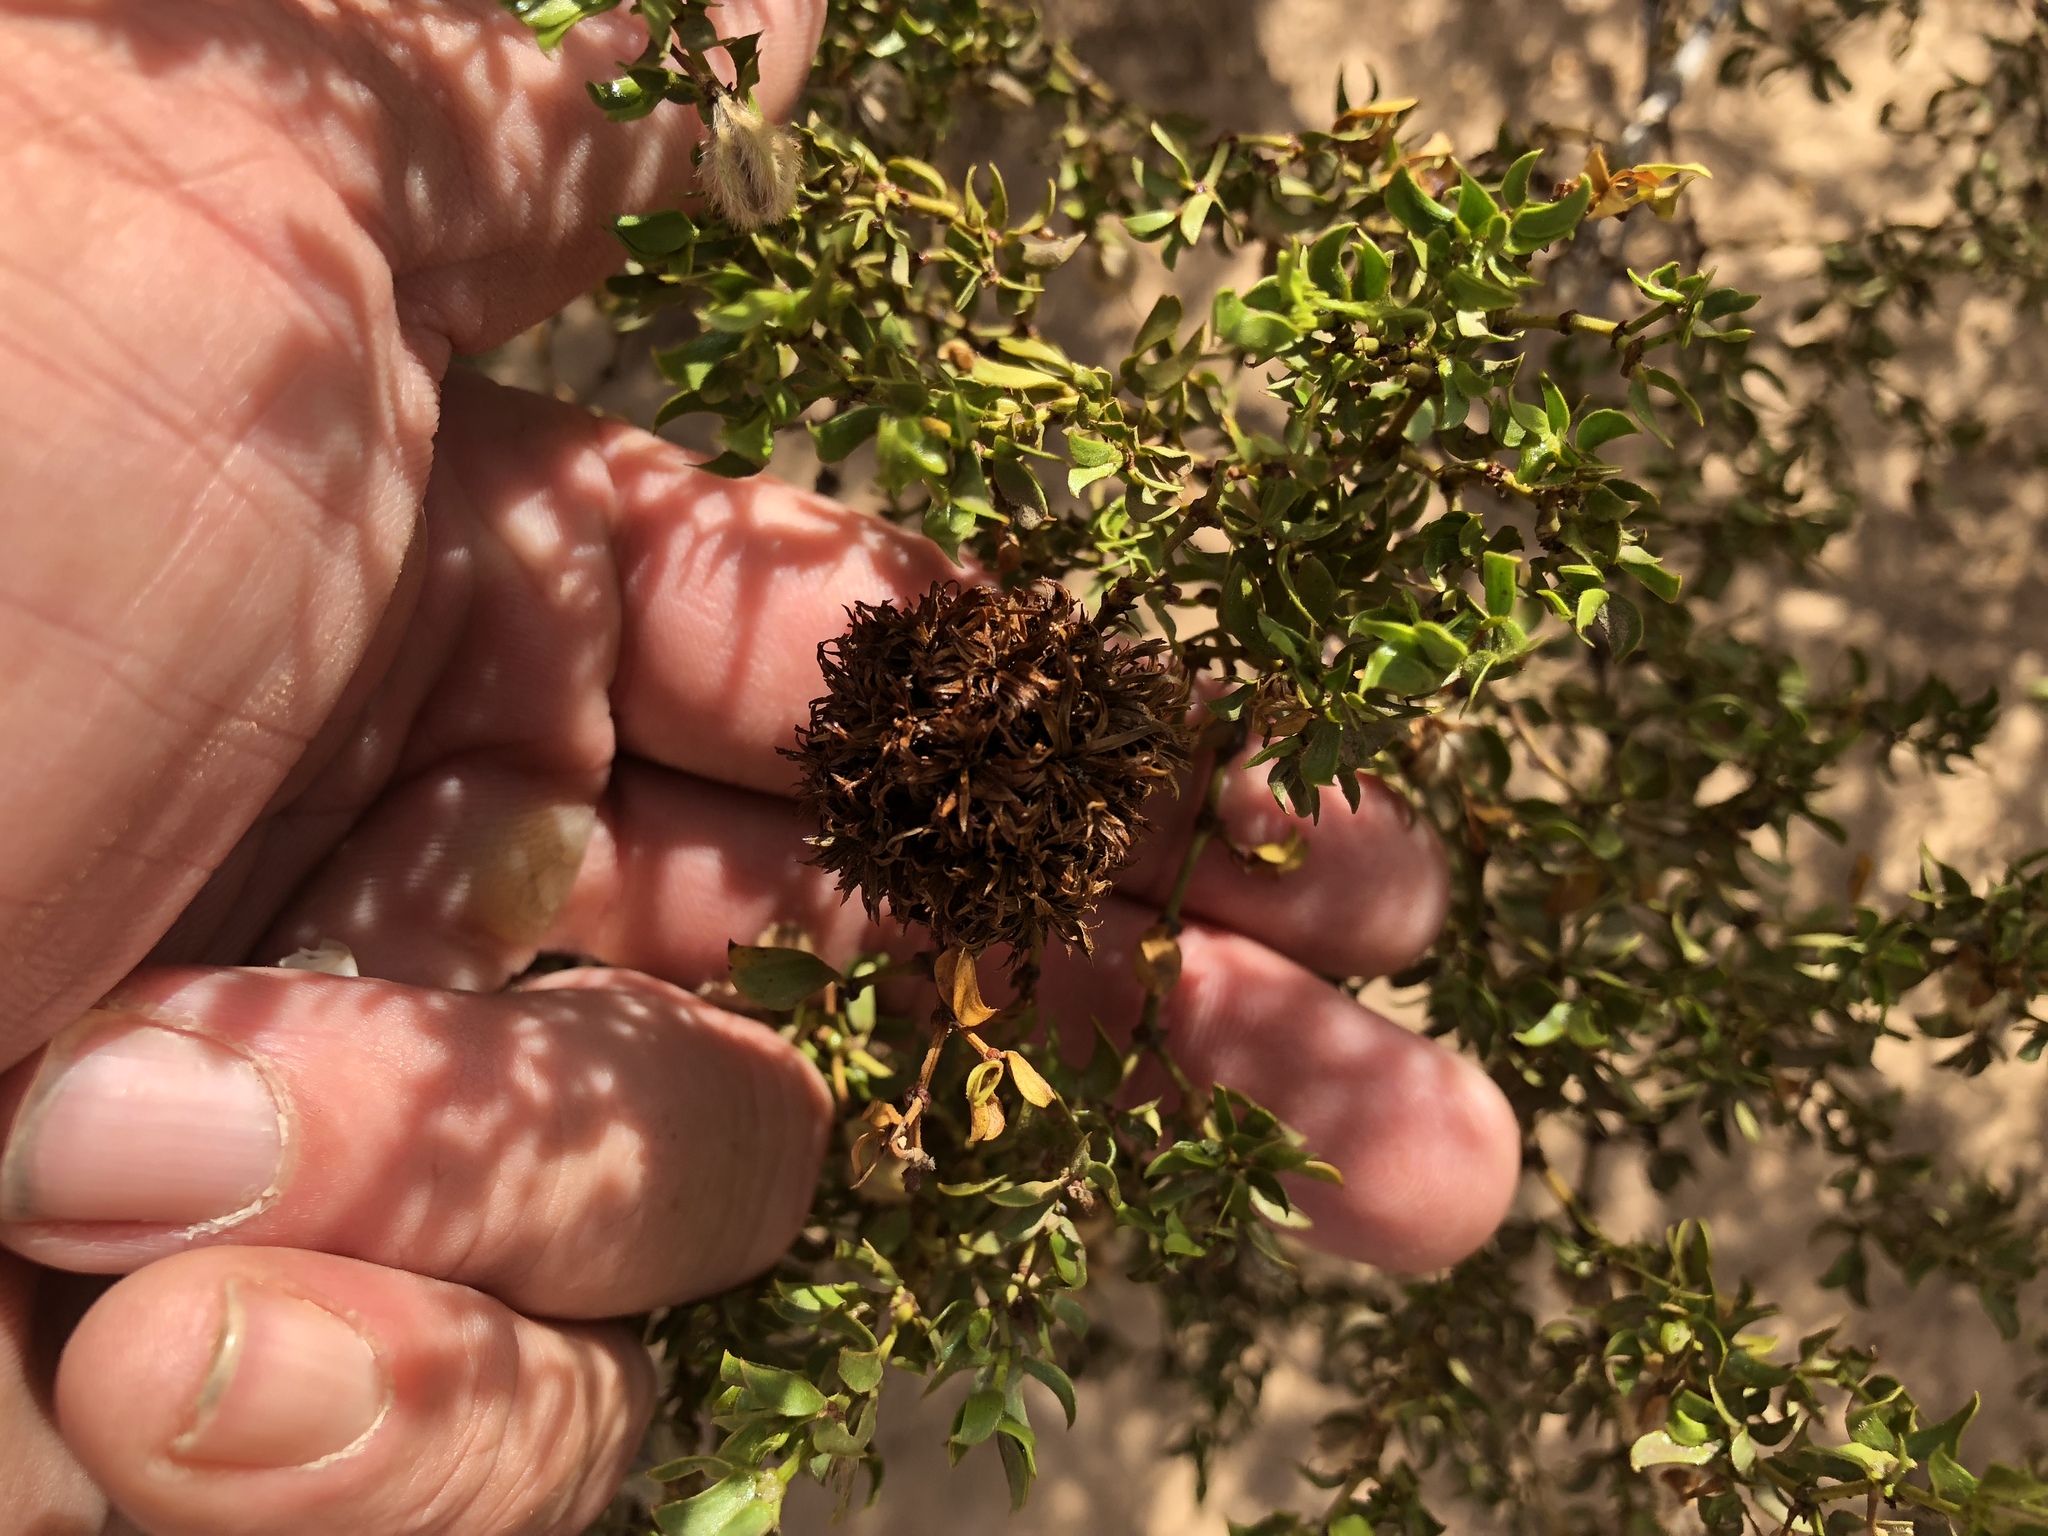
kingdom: Animalia
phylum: Arthropoda
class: Insecta
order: Diptera
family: Cecidomyiidae
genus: Asphondylia
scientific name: Asphondylia auripila
